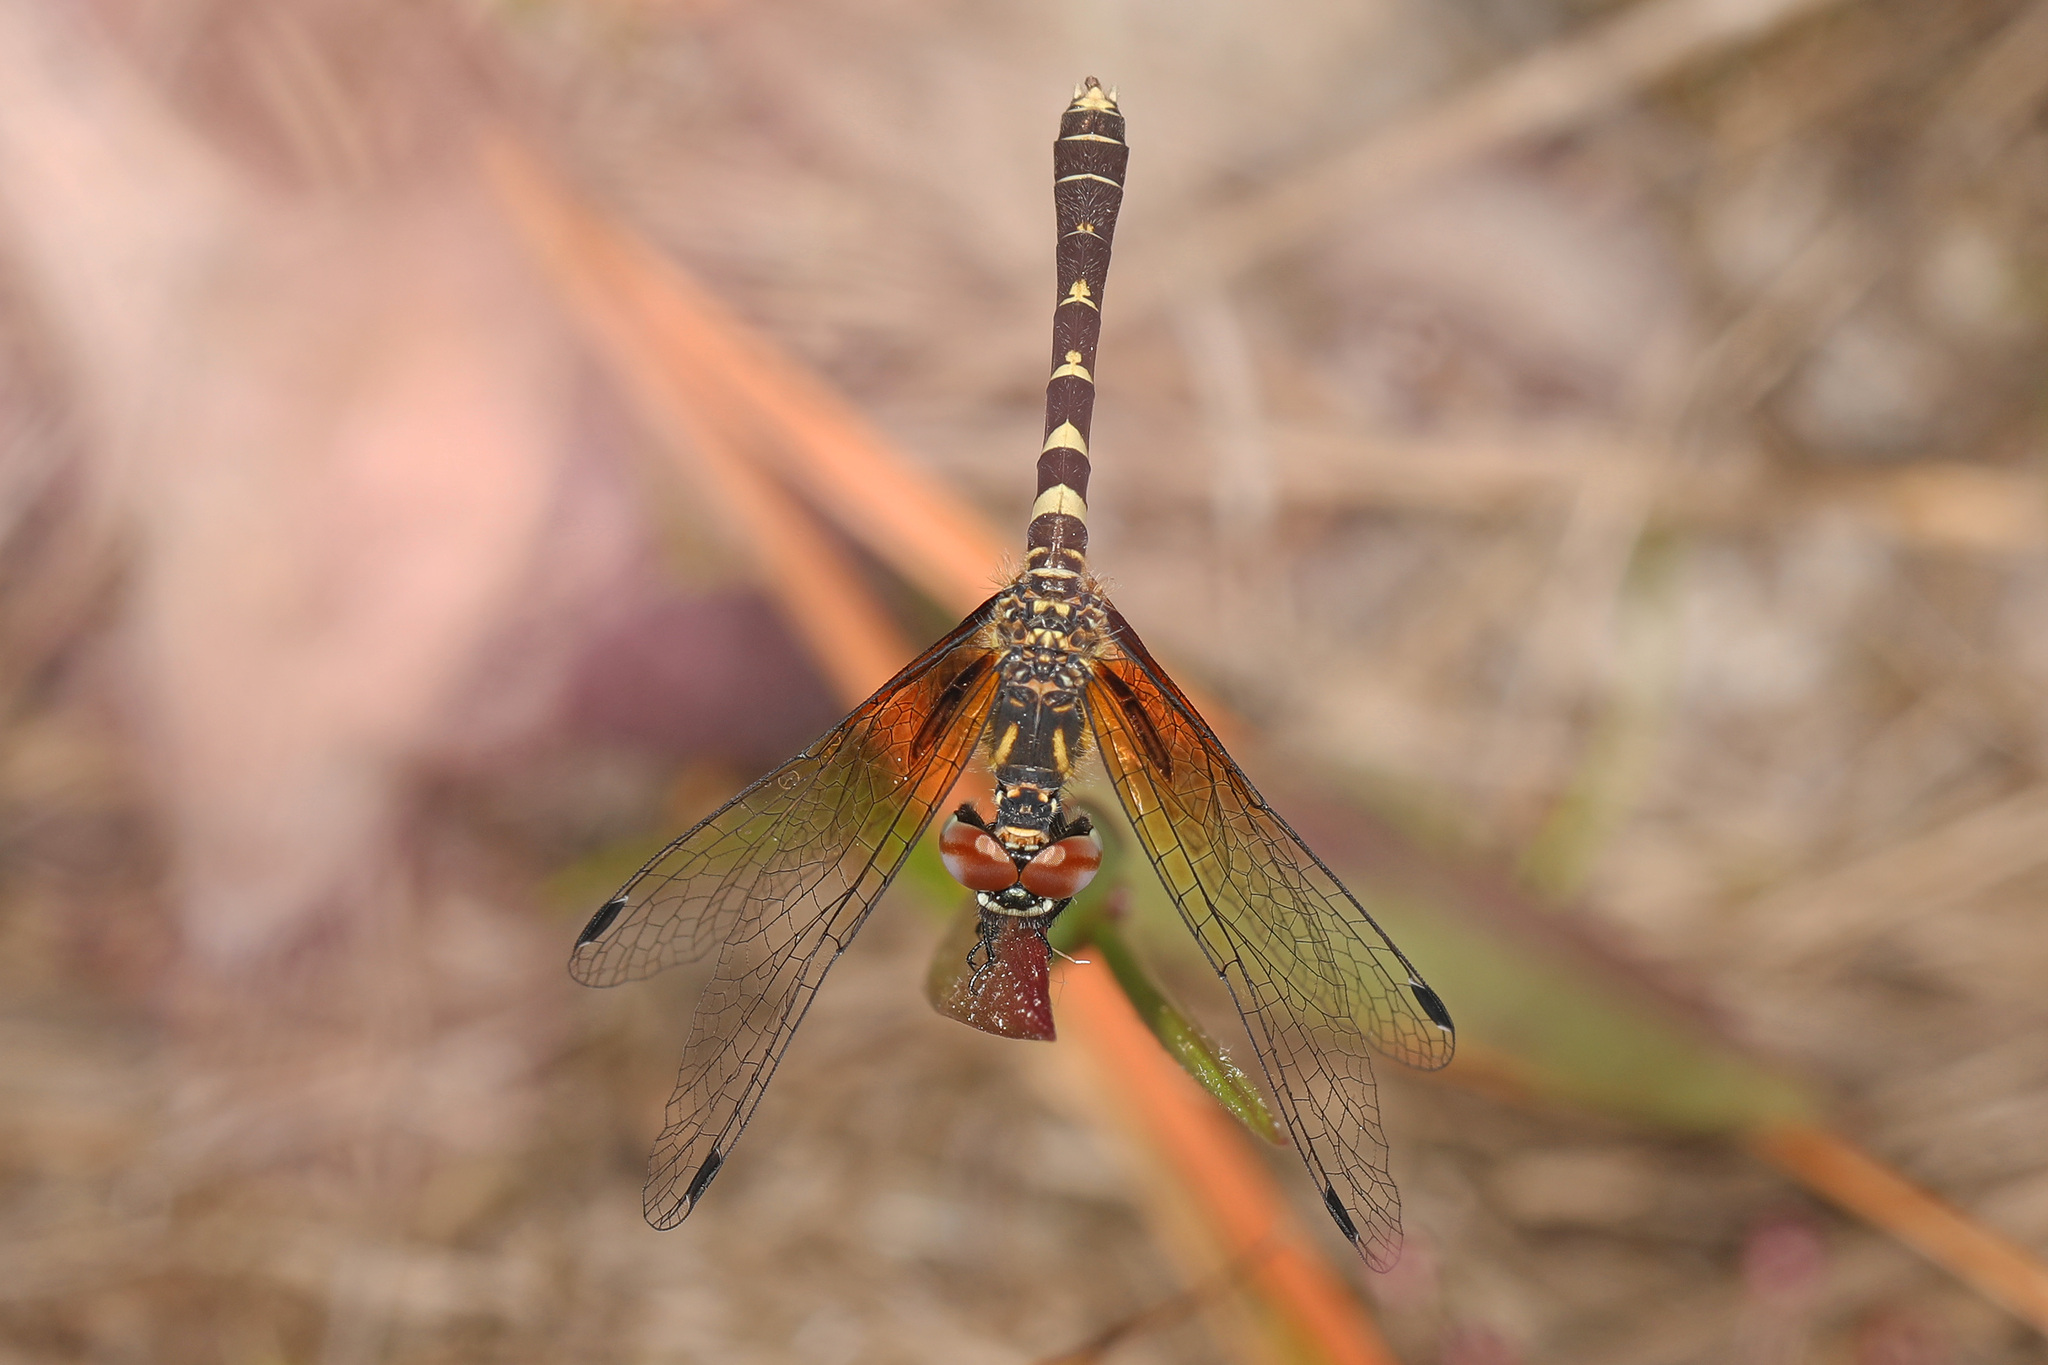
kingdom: Animalia
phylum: Arthropoda
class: Insecta
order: Odonata
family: Libellulidae
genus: Nannothemis
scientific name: Nannothemis bella
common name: Elfin skimmer
